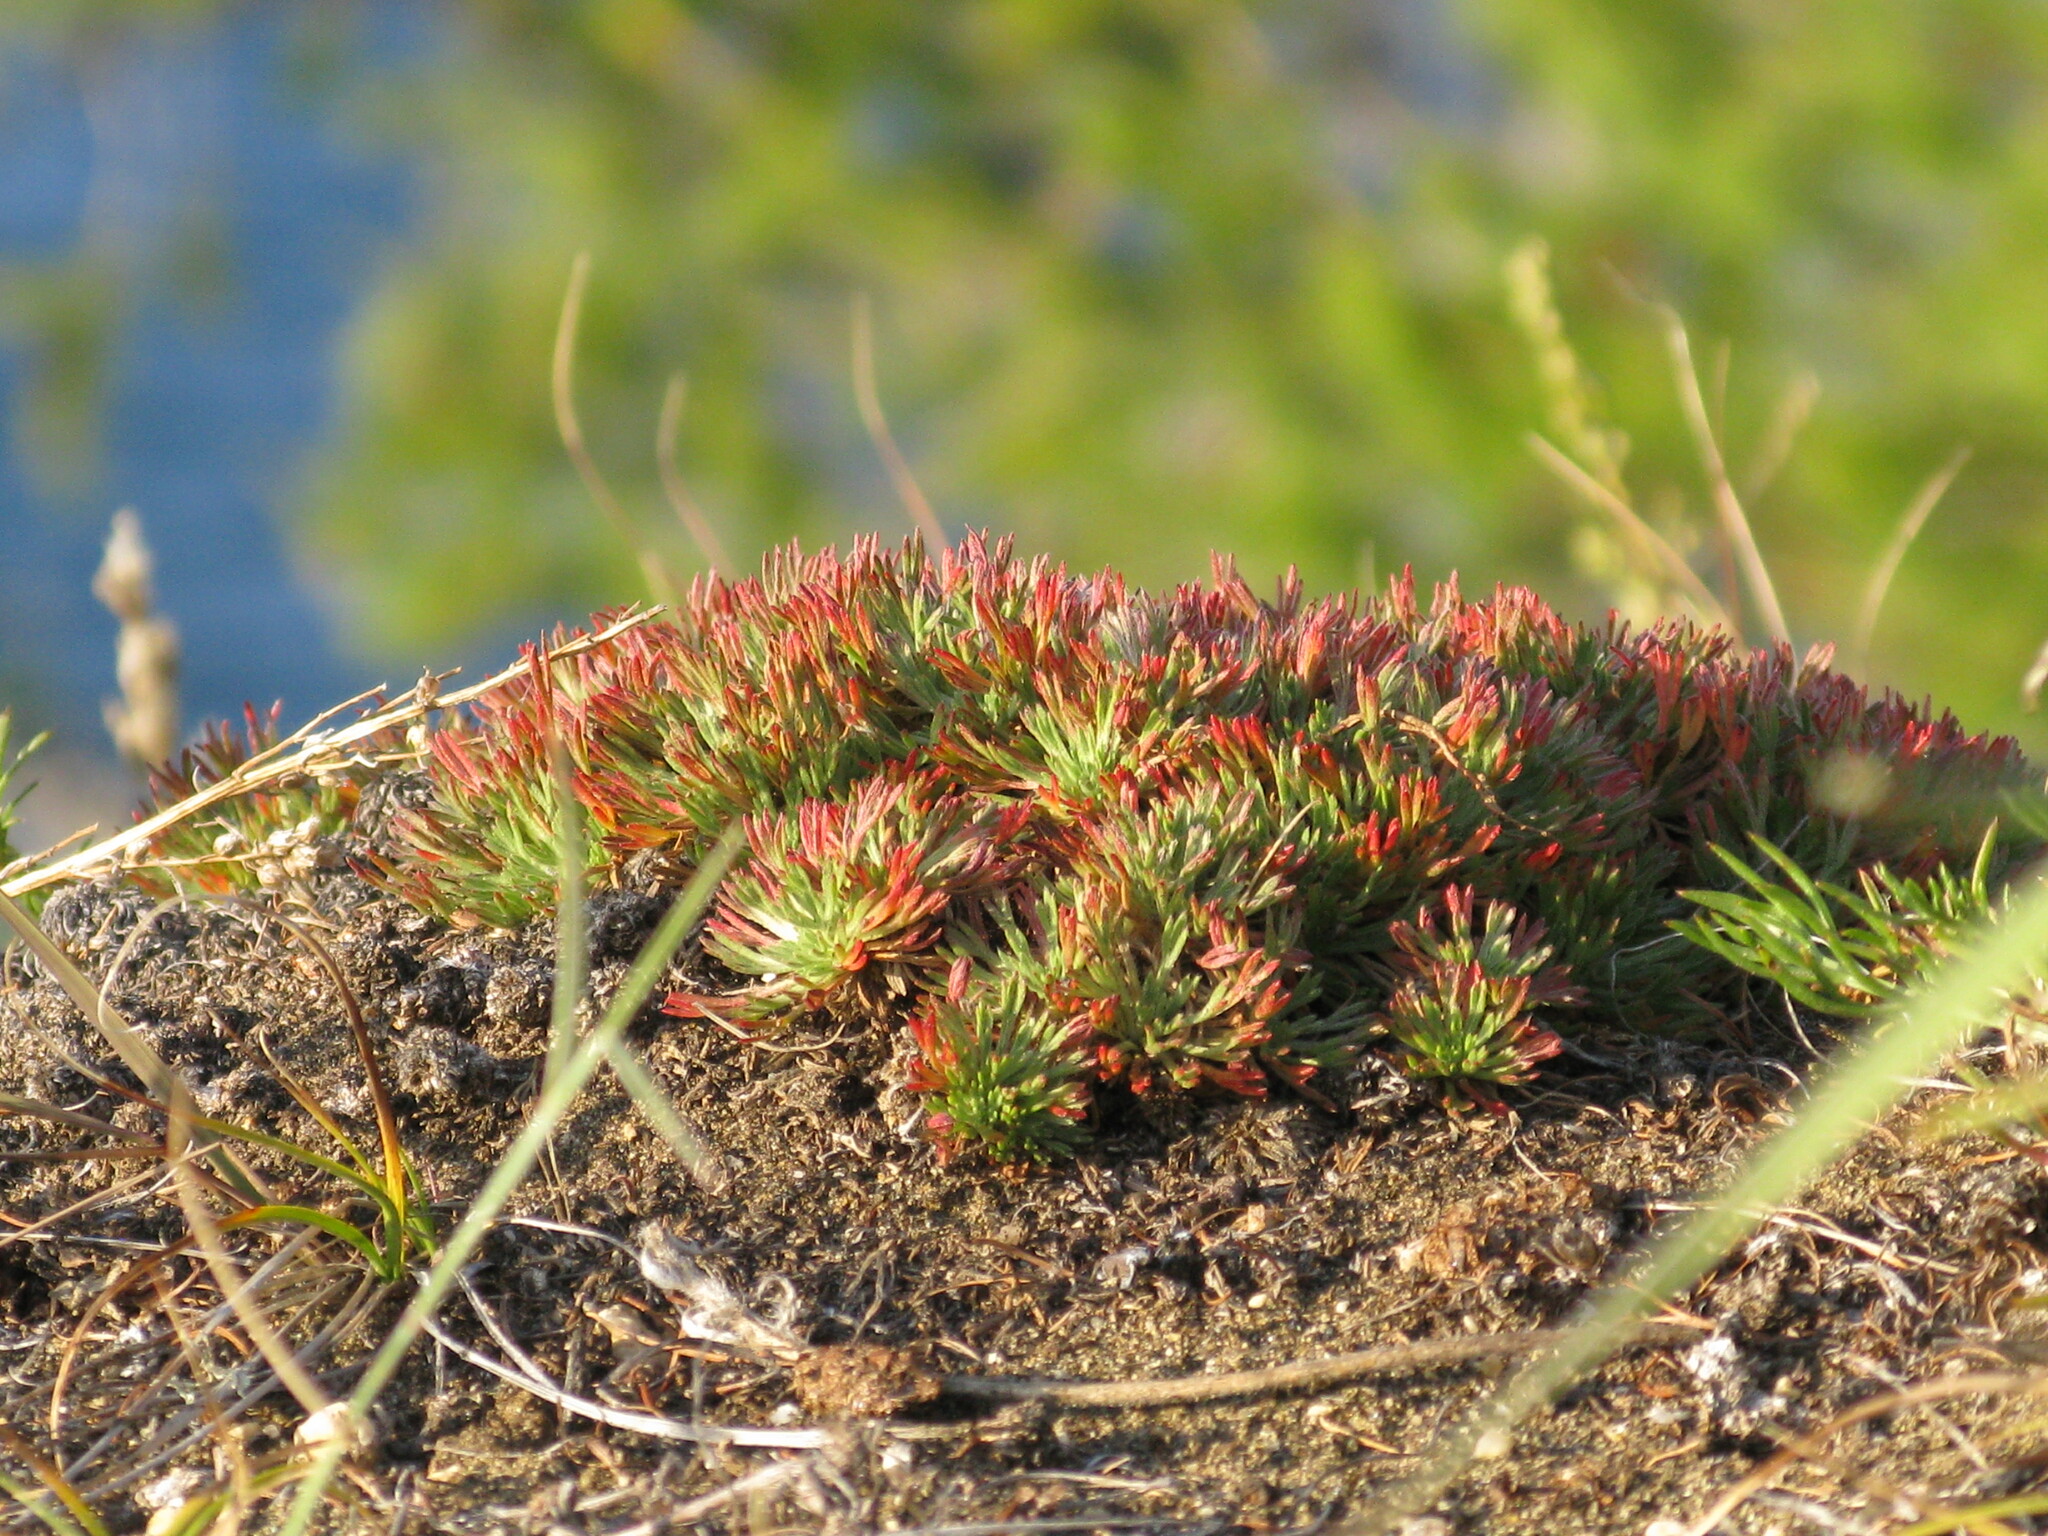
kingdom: Plantae
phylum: Tracheophyta
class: Magnoliopsida
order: Saxifragales
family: Saxifragaceae
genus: Saxifraga
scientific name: Saxifraga
